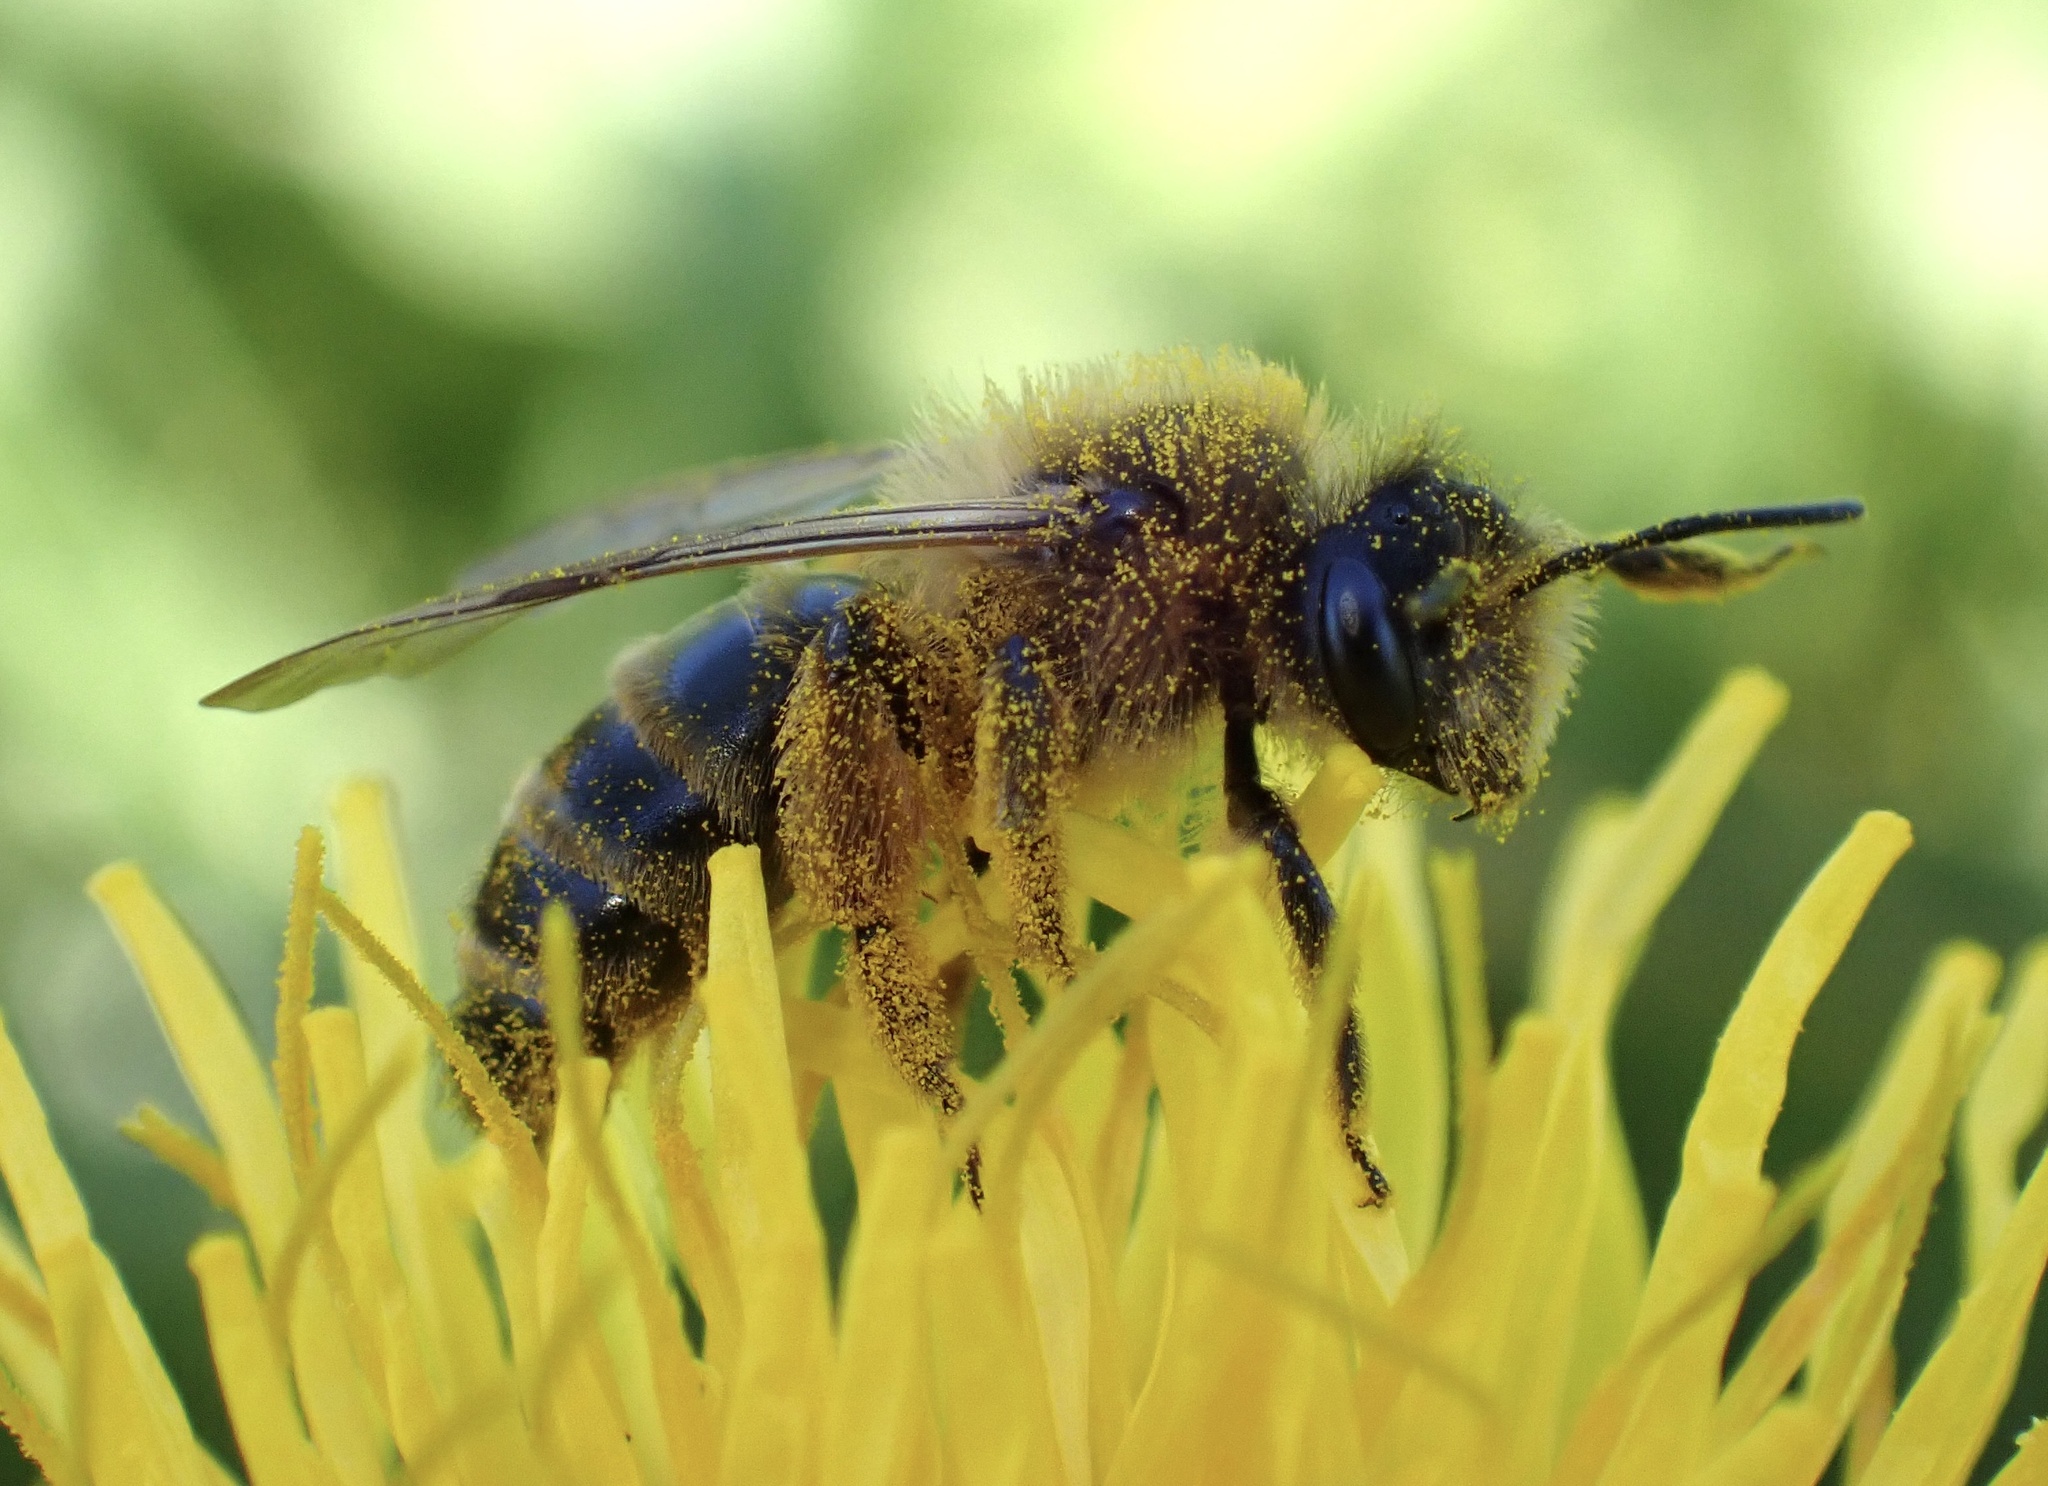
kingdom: Animalia
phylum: Arthropoda
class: Insecta
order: Hymenoptera
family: Andrenidae
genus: Andrena
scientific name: Andrena flavipes
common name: Yellow-legged mining bee
